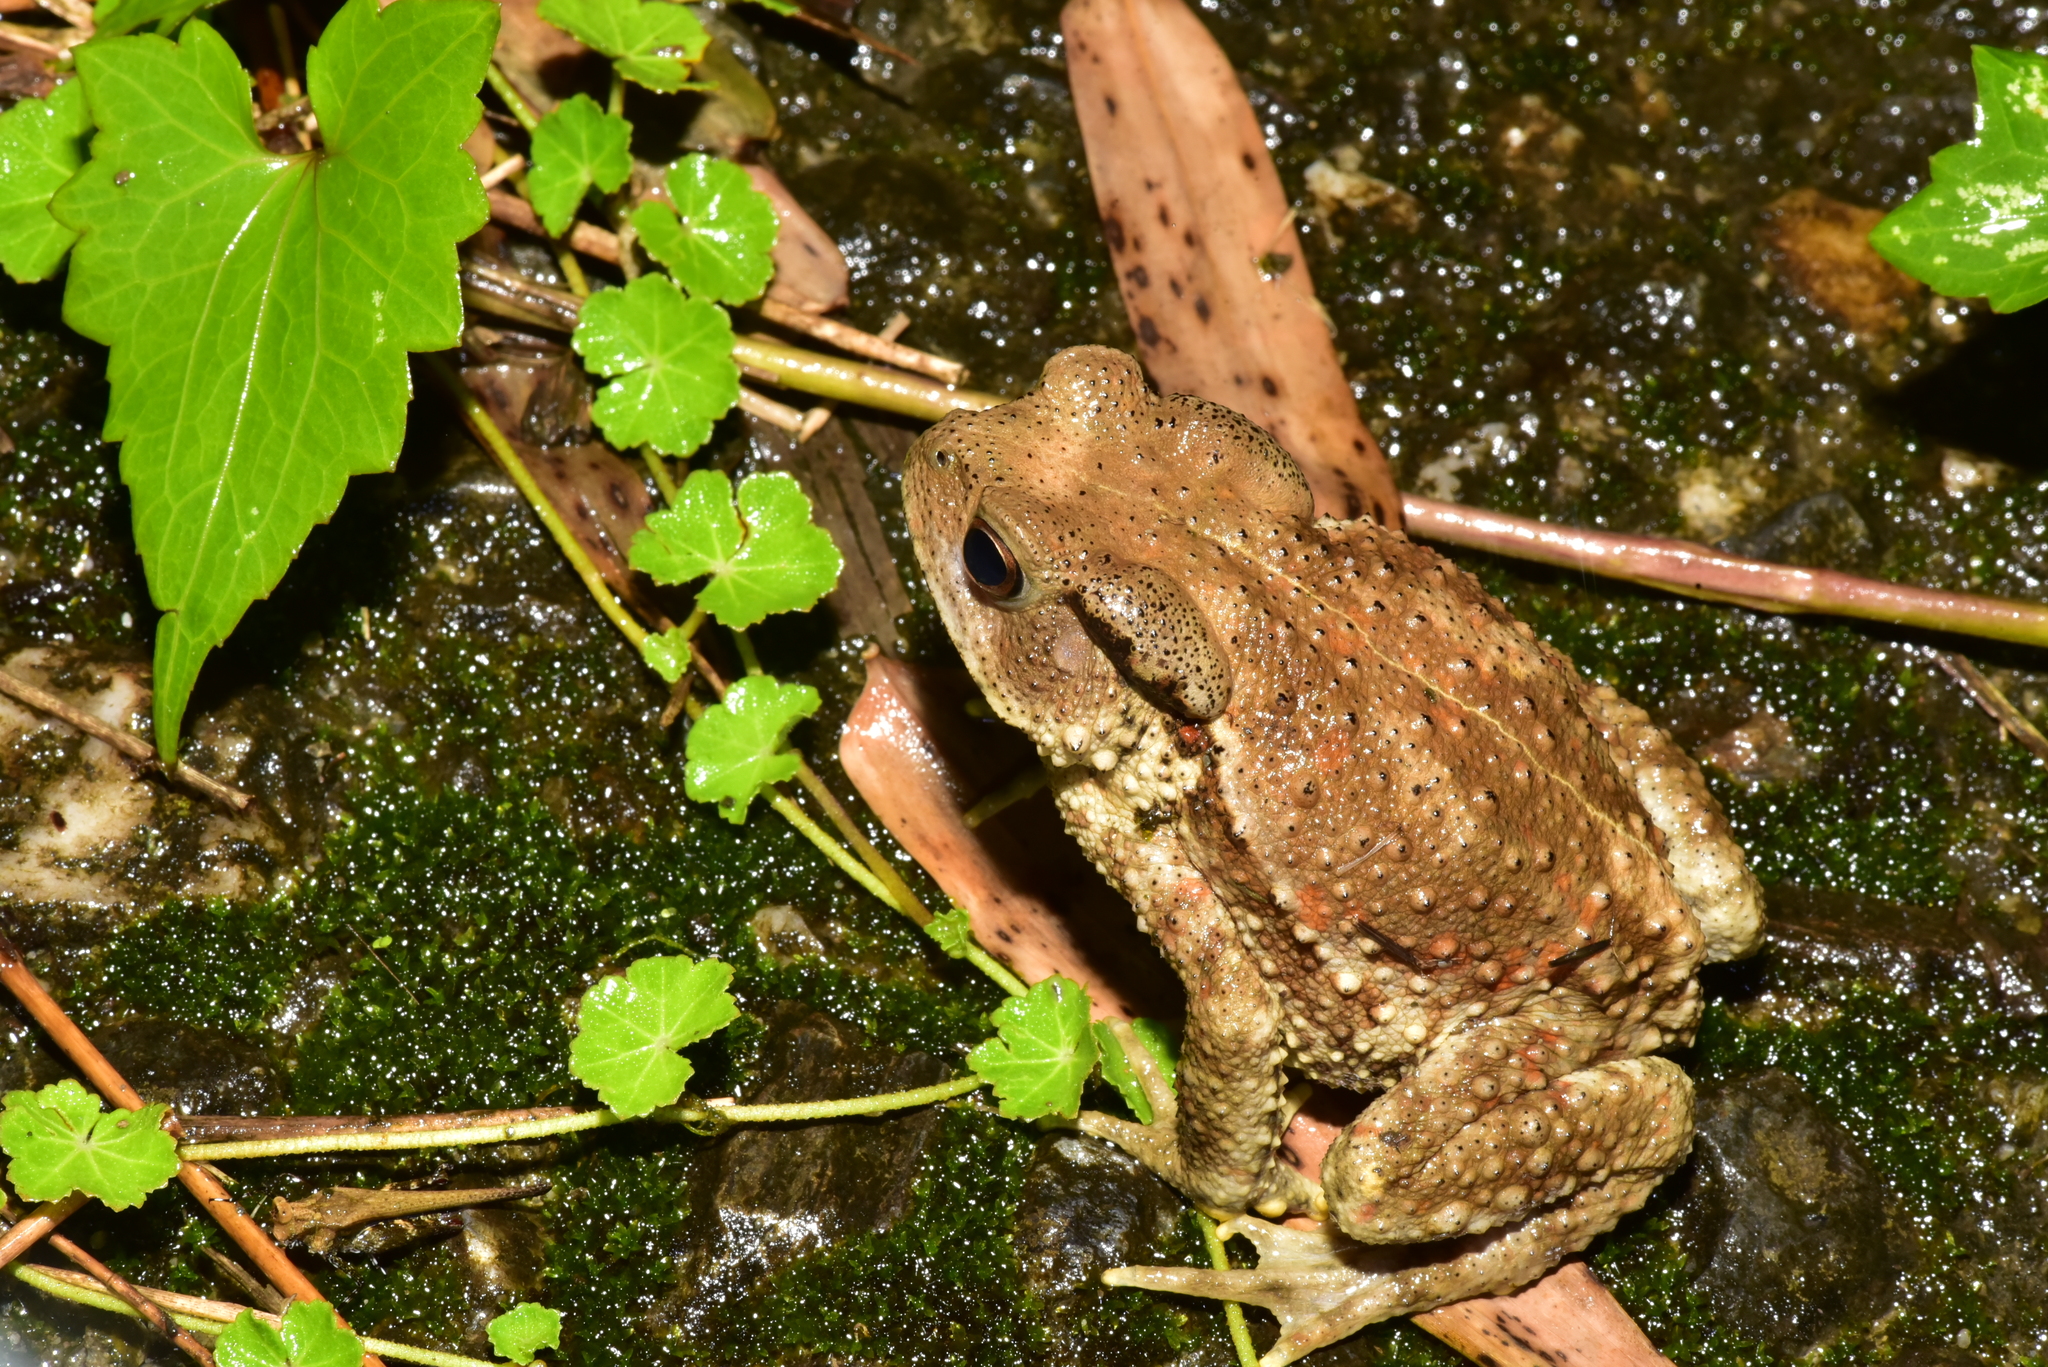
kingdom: Animalia
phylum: Chordata
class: Amphibia
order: Anura
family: Bufonidae
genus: Bufo
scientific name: Bufo bankorensis
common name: Bankor toad
